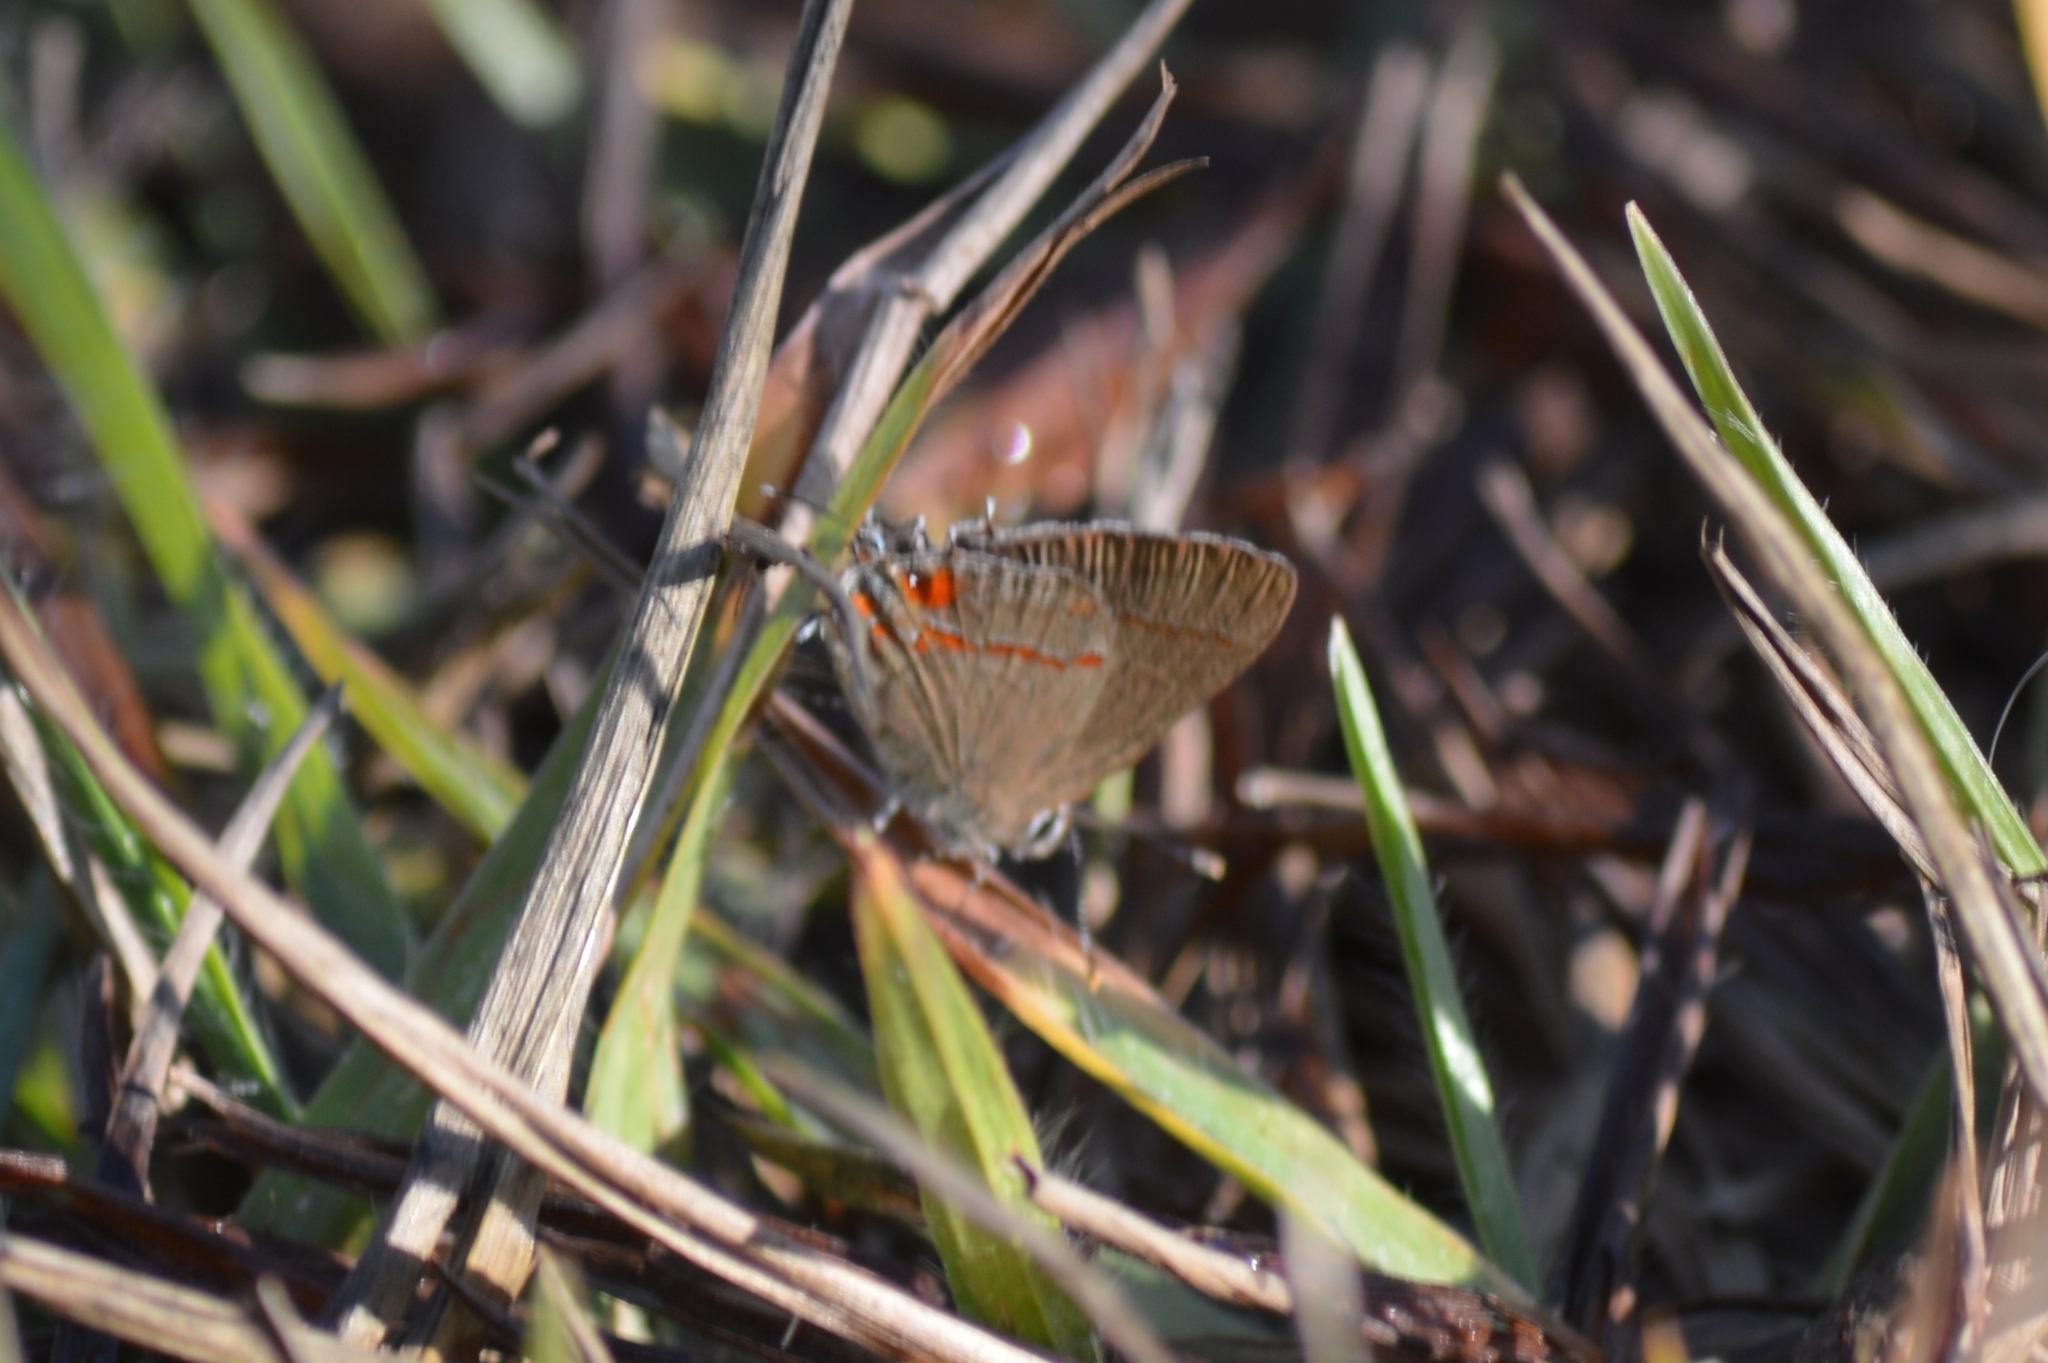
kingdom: Animalia
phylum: Arthropoda
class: Insecta
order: Lepidoptera
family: Lycaenidae
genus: Arzecla
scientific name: Arzecla tucumanensis
